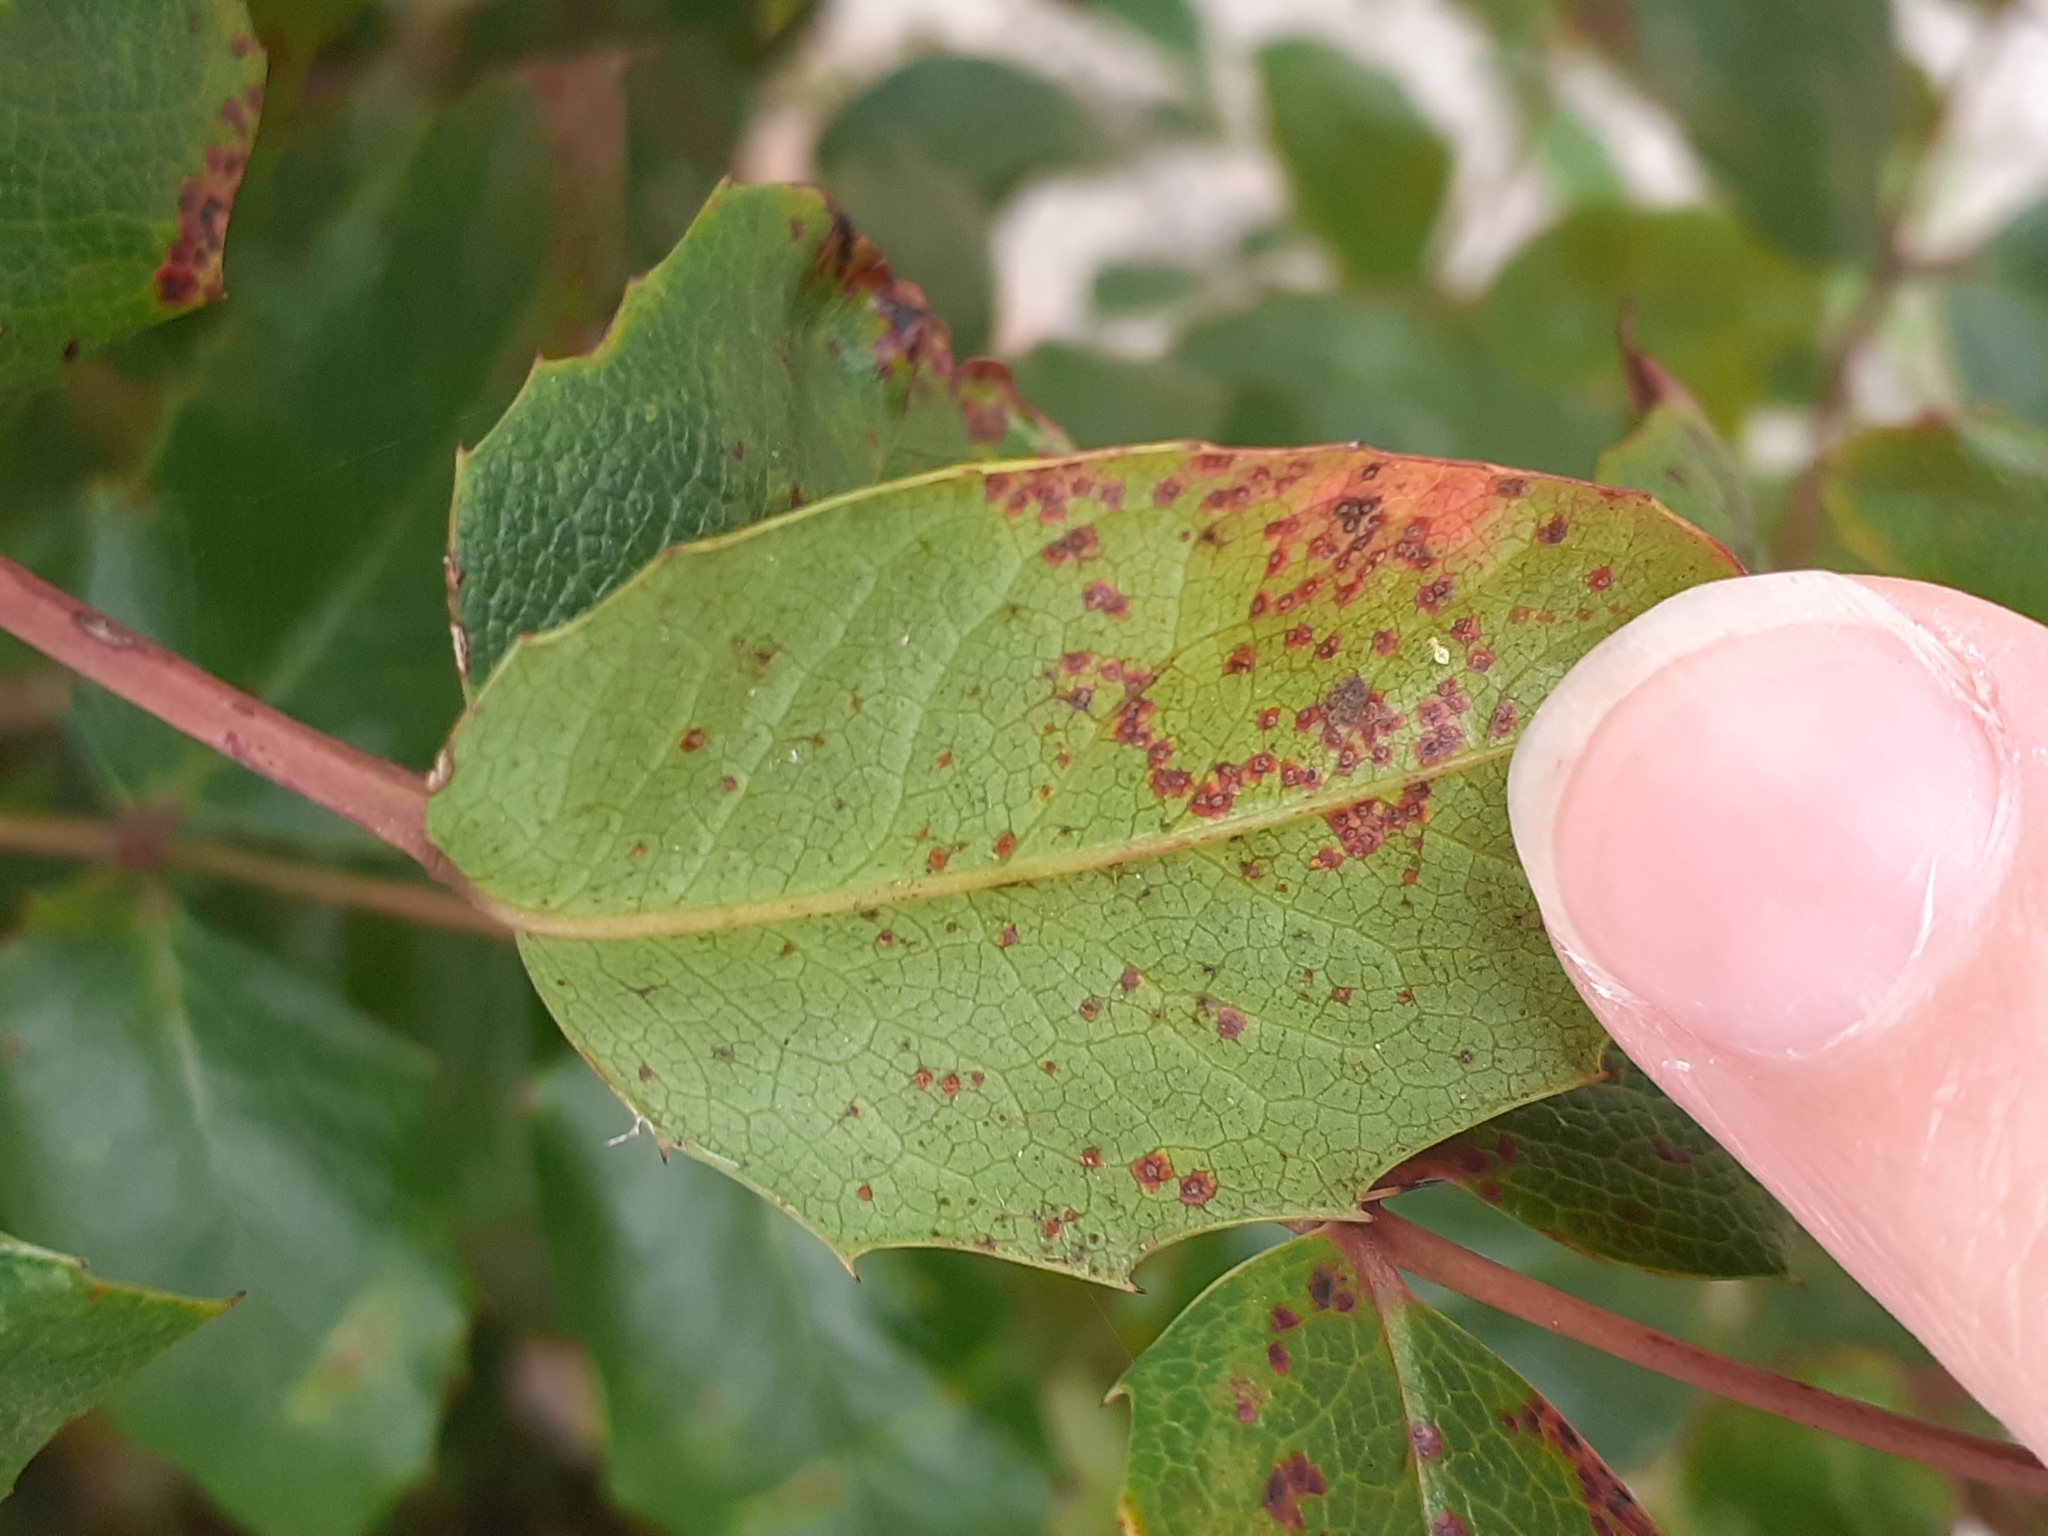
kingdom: Fungi
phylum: Basidiomycota
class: Pucciniomycetes
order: Pucciniales
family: Pucciniaceae
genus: Cumminsiella
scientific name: Cumminsiella mirabilissima
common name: Mahonia rust
